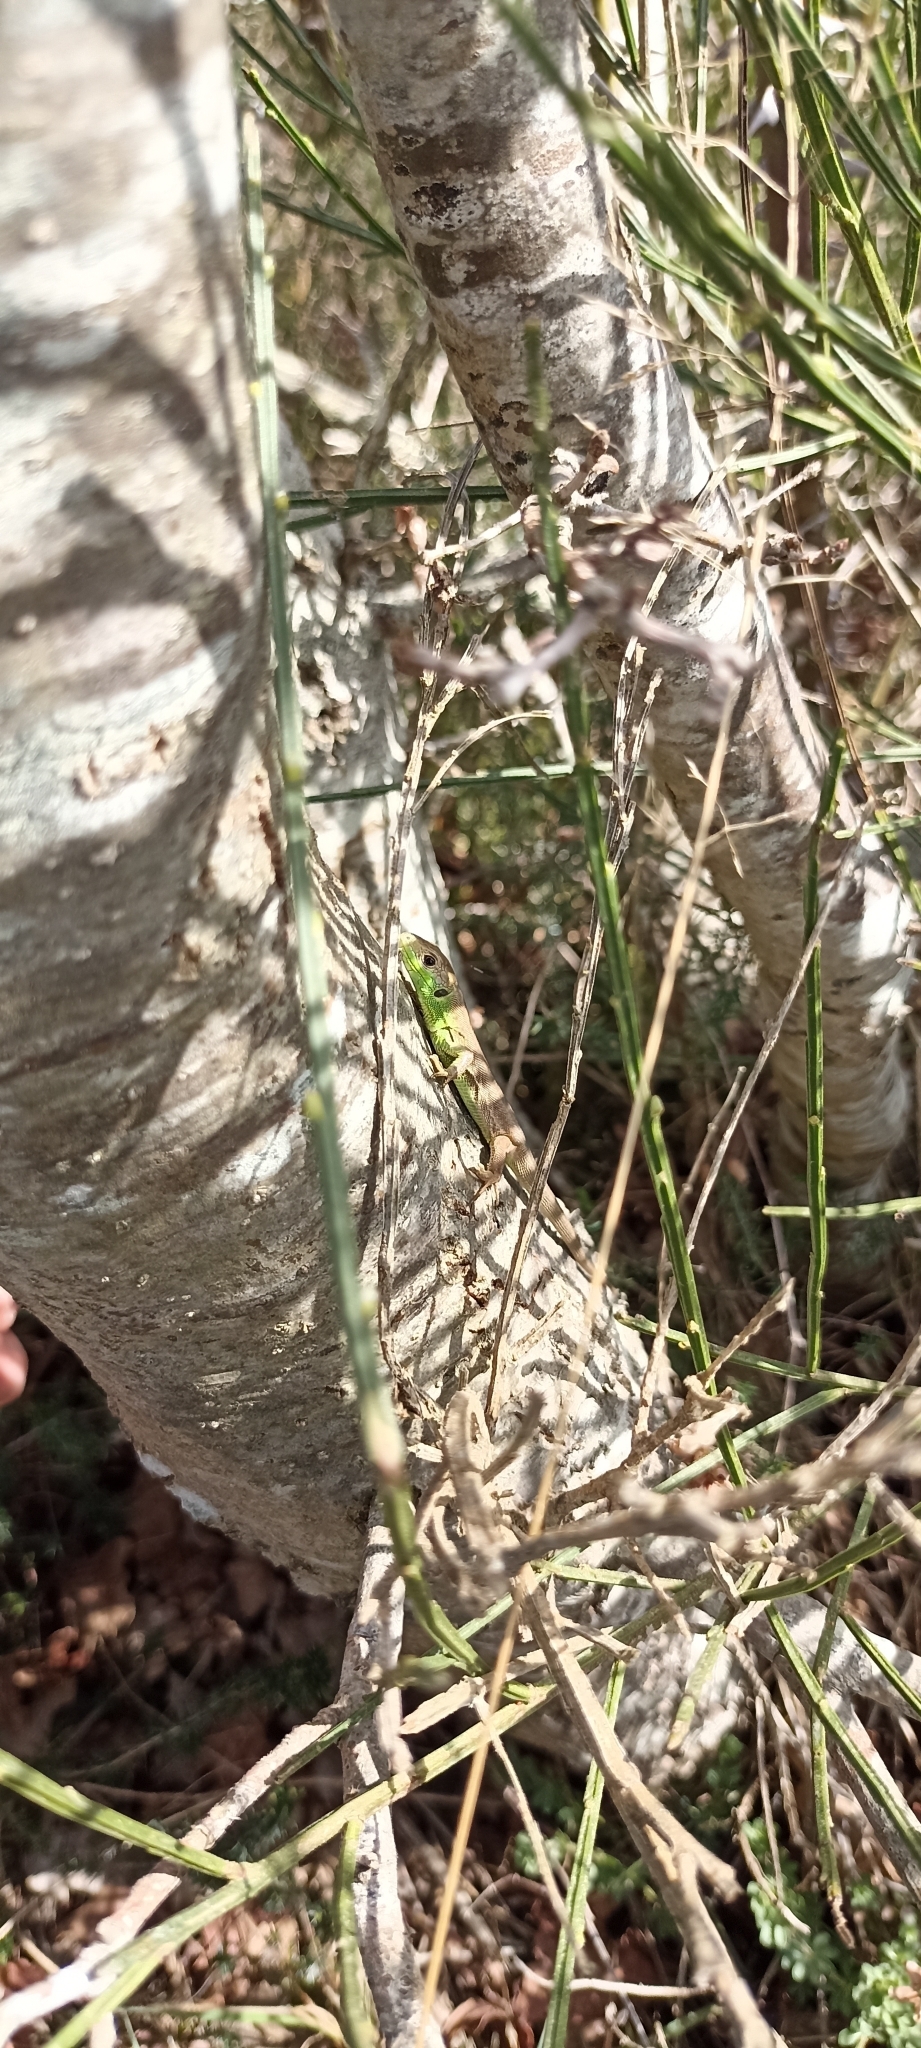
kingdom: Animalia
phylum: Chordata
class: Squamata
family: Lacertidae
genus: Lacerta
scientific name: Lacerta bilineata
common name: Western green lizard
